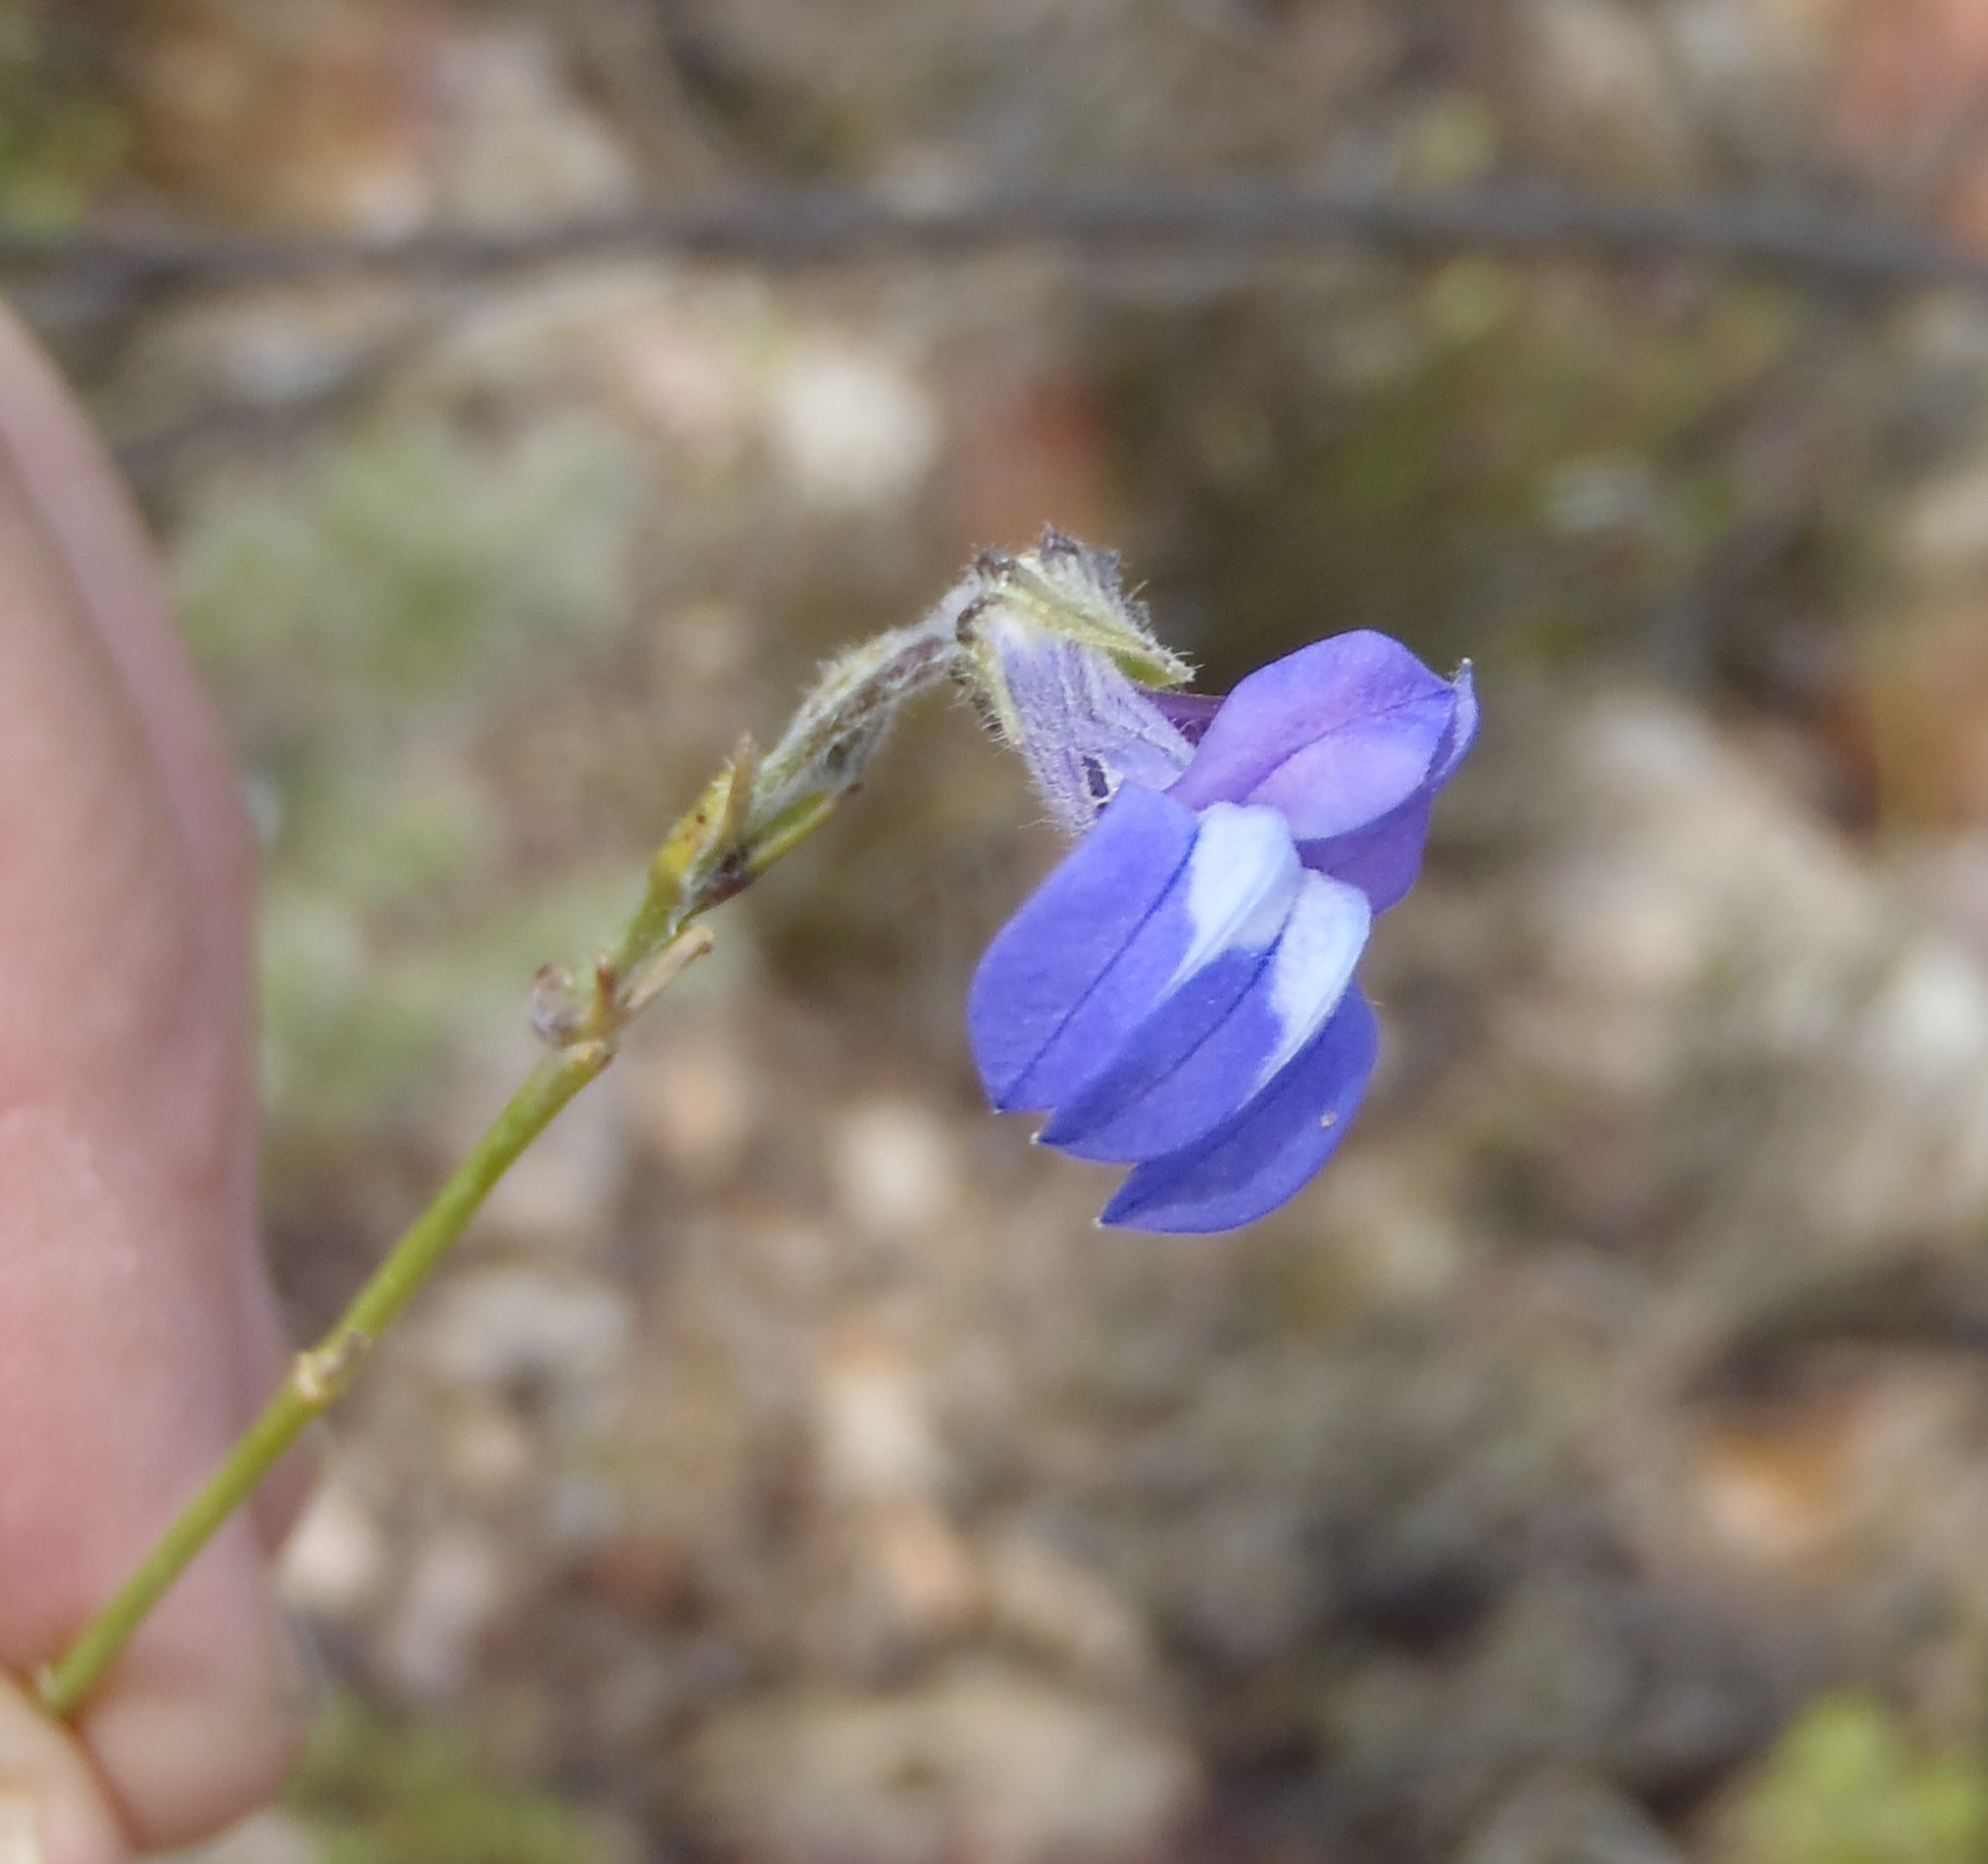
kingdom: Plantae
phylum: Tracheophyta
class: Magnoliopsida
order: Asterales
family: Campanulaceae
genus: Lobelia
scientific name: Lobelia linearis
